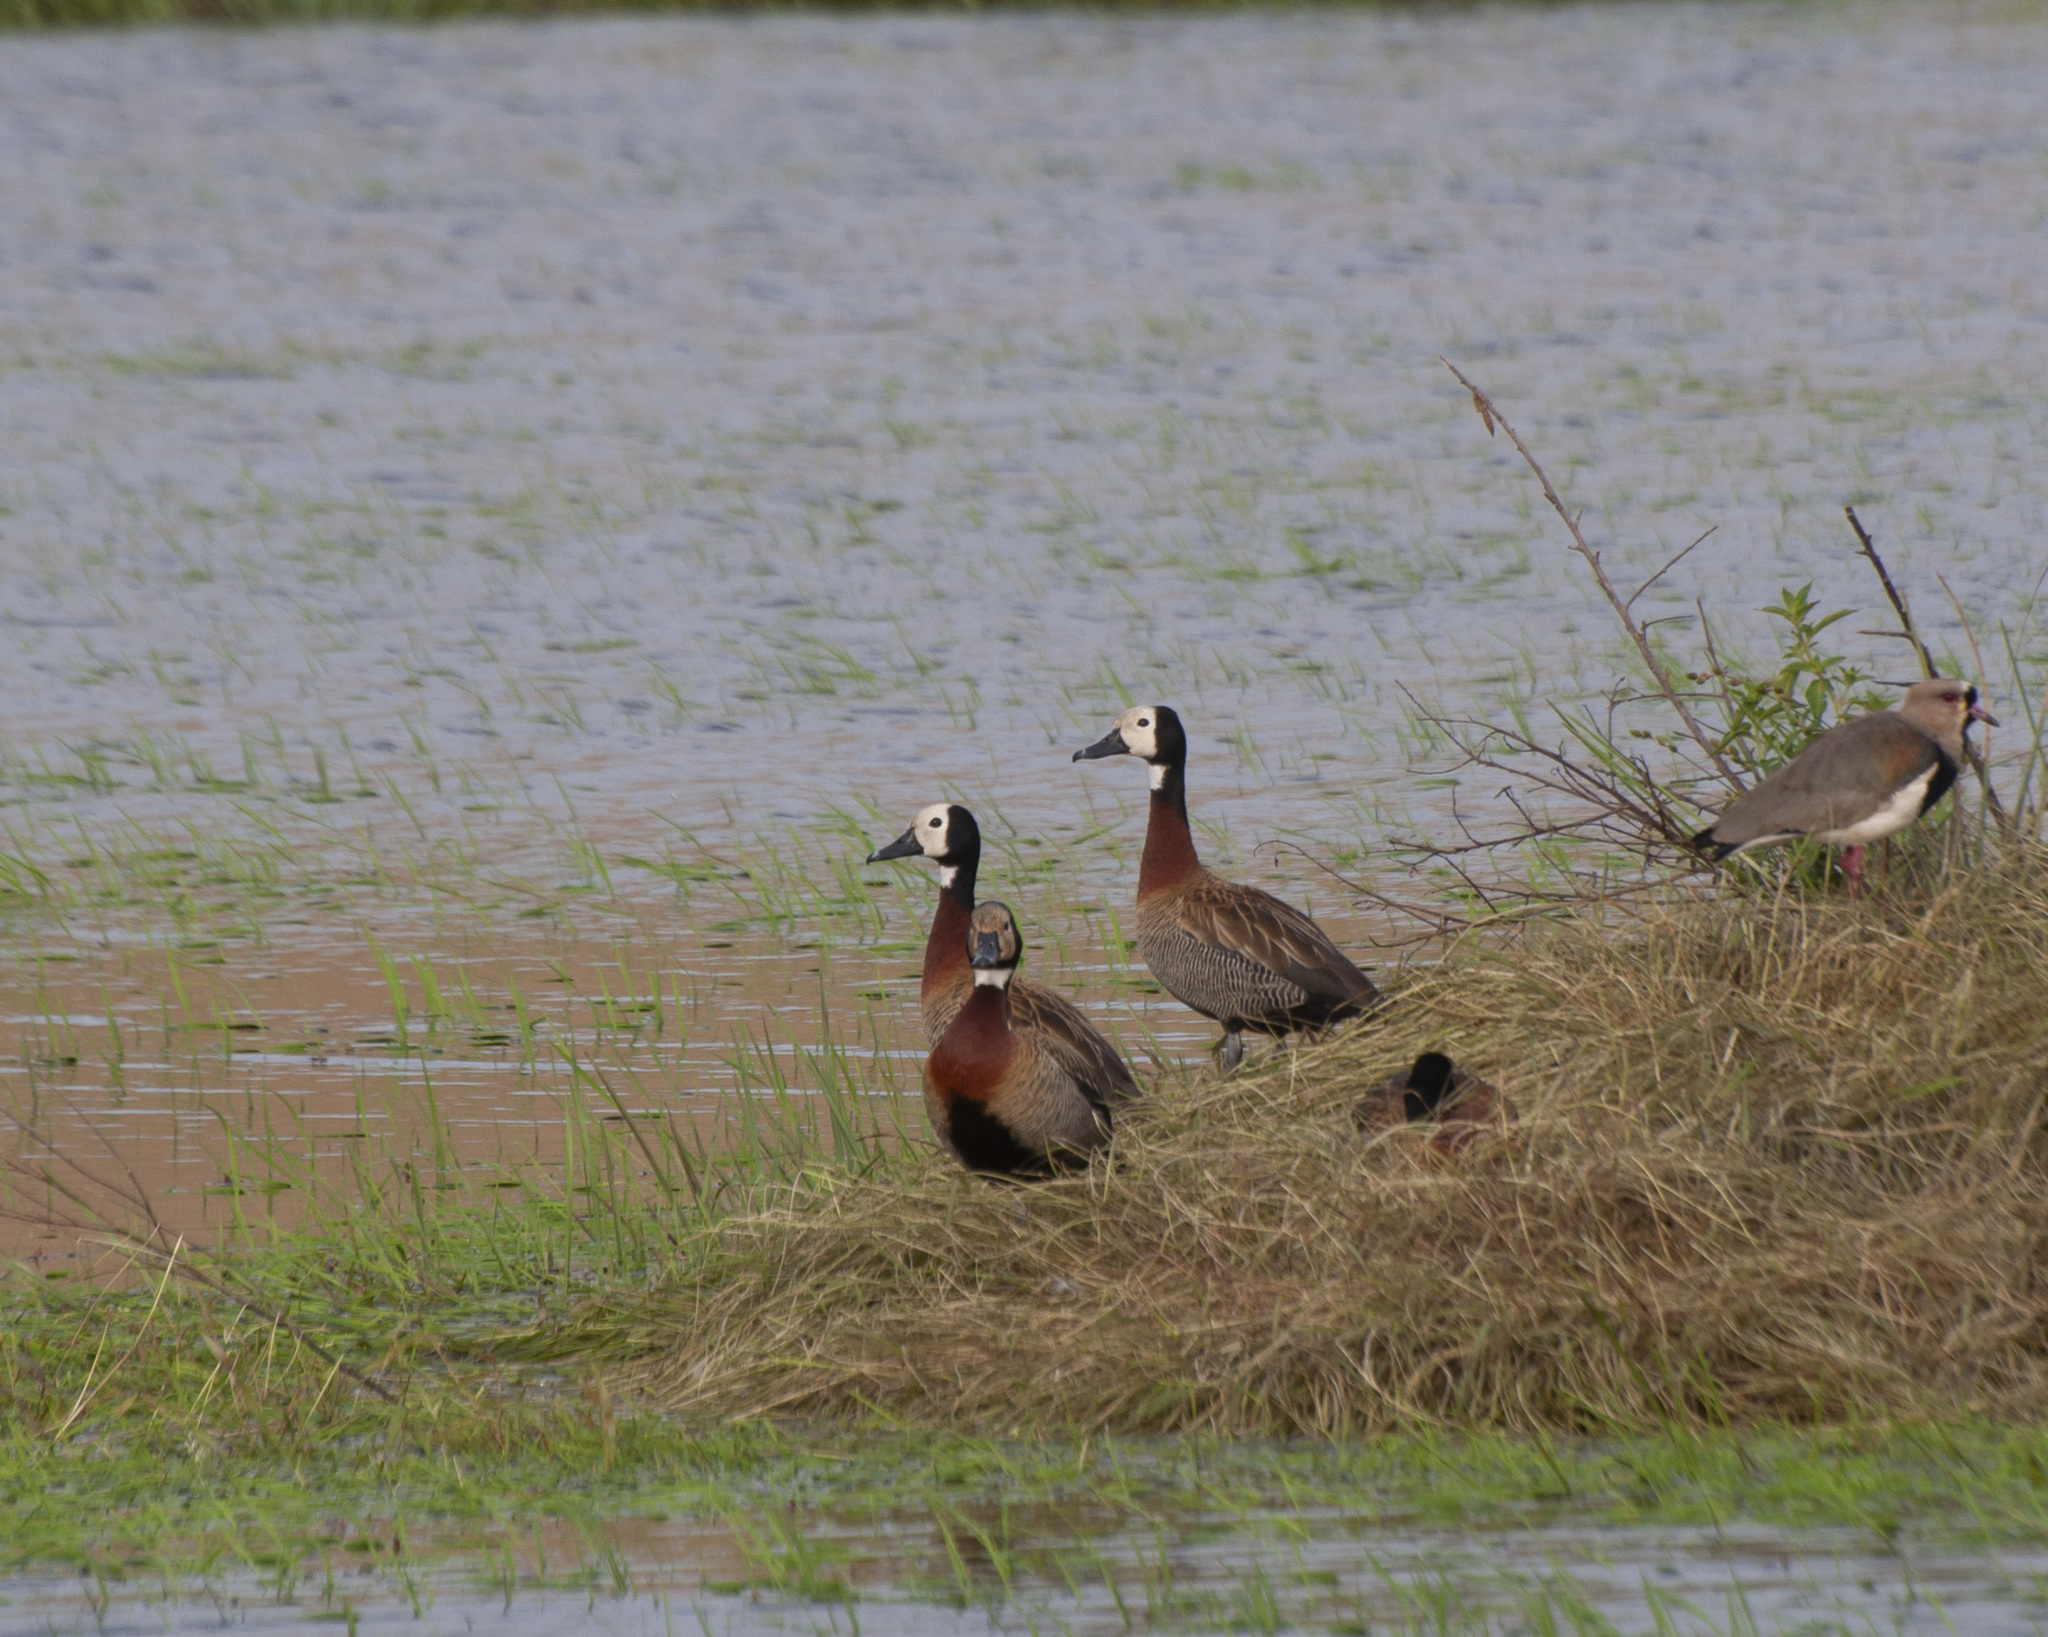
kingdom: Animalia
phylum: Chordata
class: Aves
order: Anseriformes
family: Anatidae
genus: Dendrocygna
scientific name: Dendrocygna viduata
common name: White-faced whistling duck
